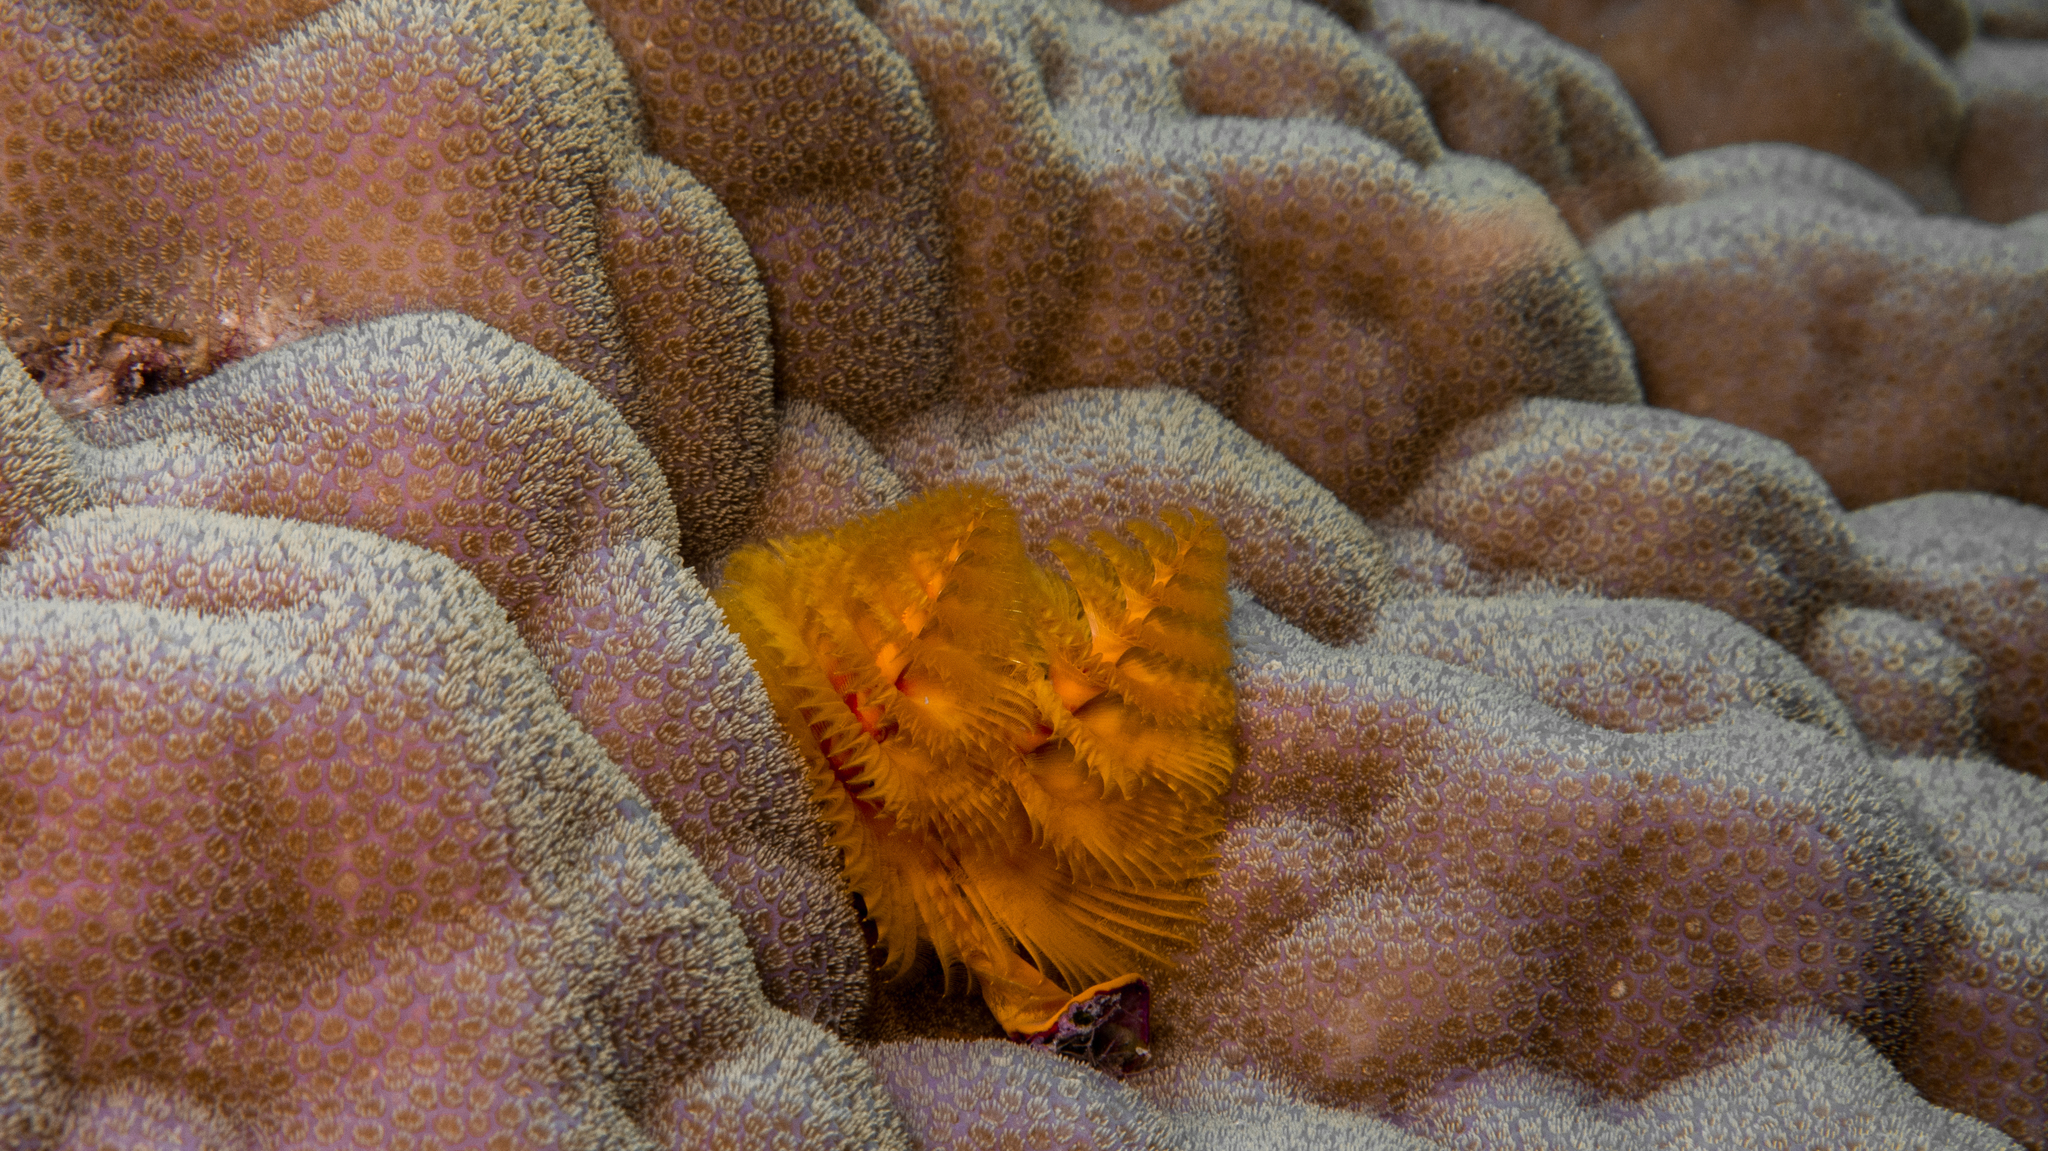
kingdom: Animalia
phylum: Annelida
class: Polychaeta
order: Sabellida
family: Serpulidae
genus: Spirobranchus
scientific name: Spirobranchus corniculatus
